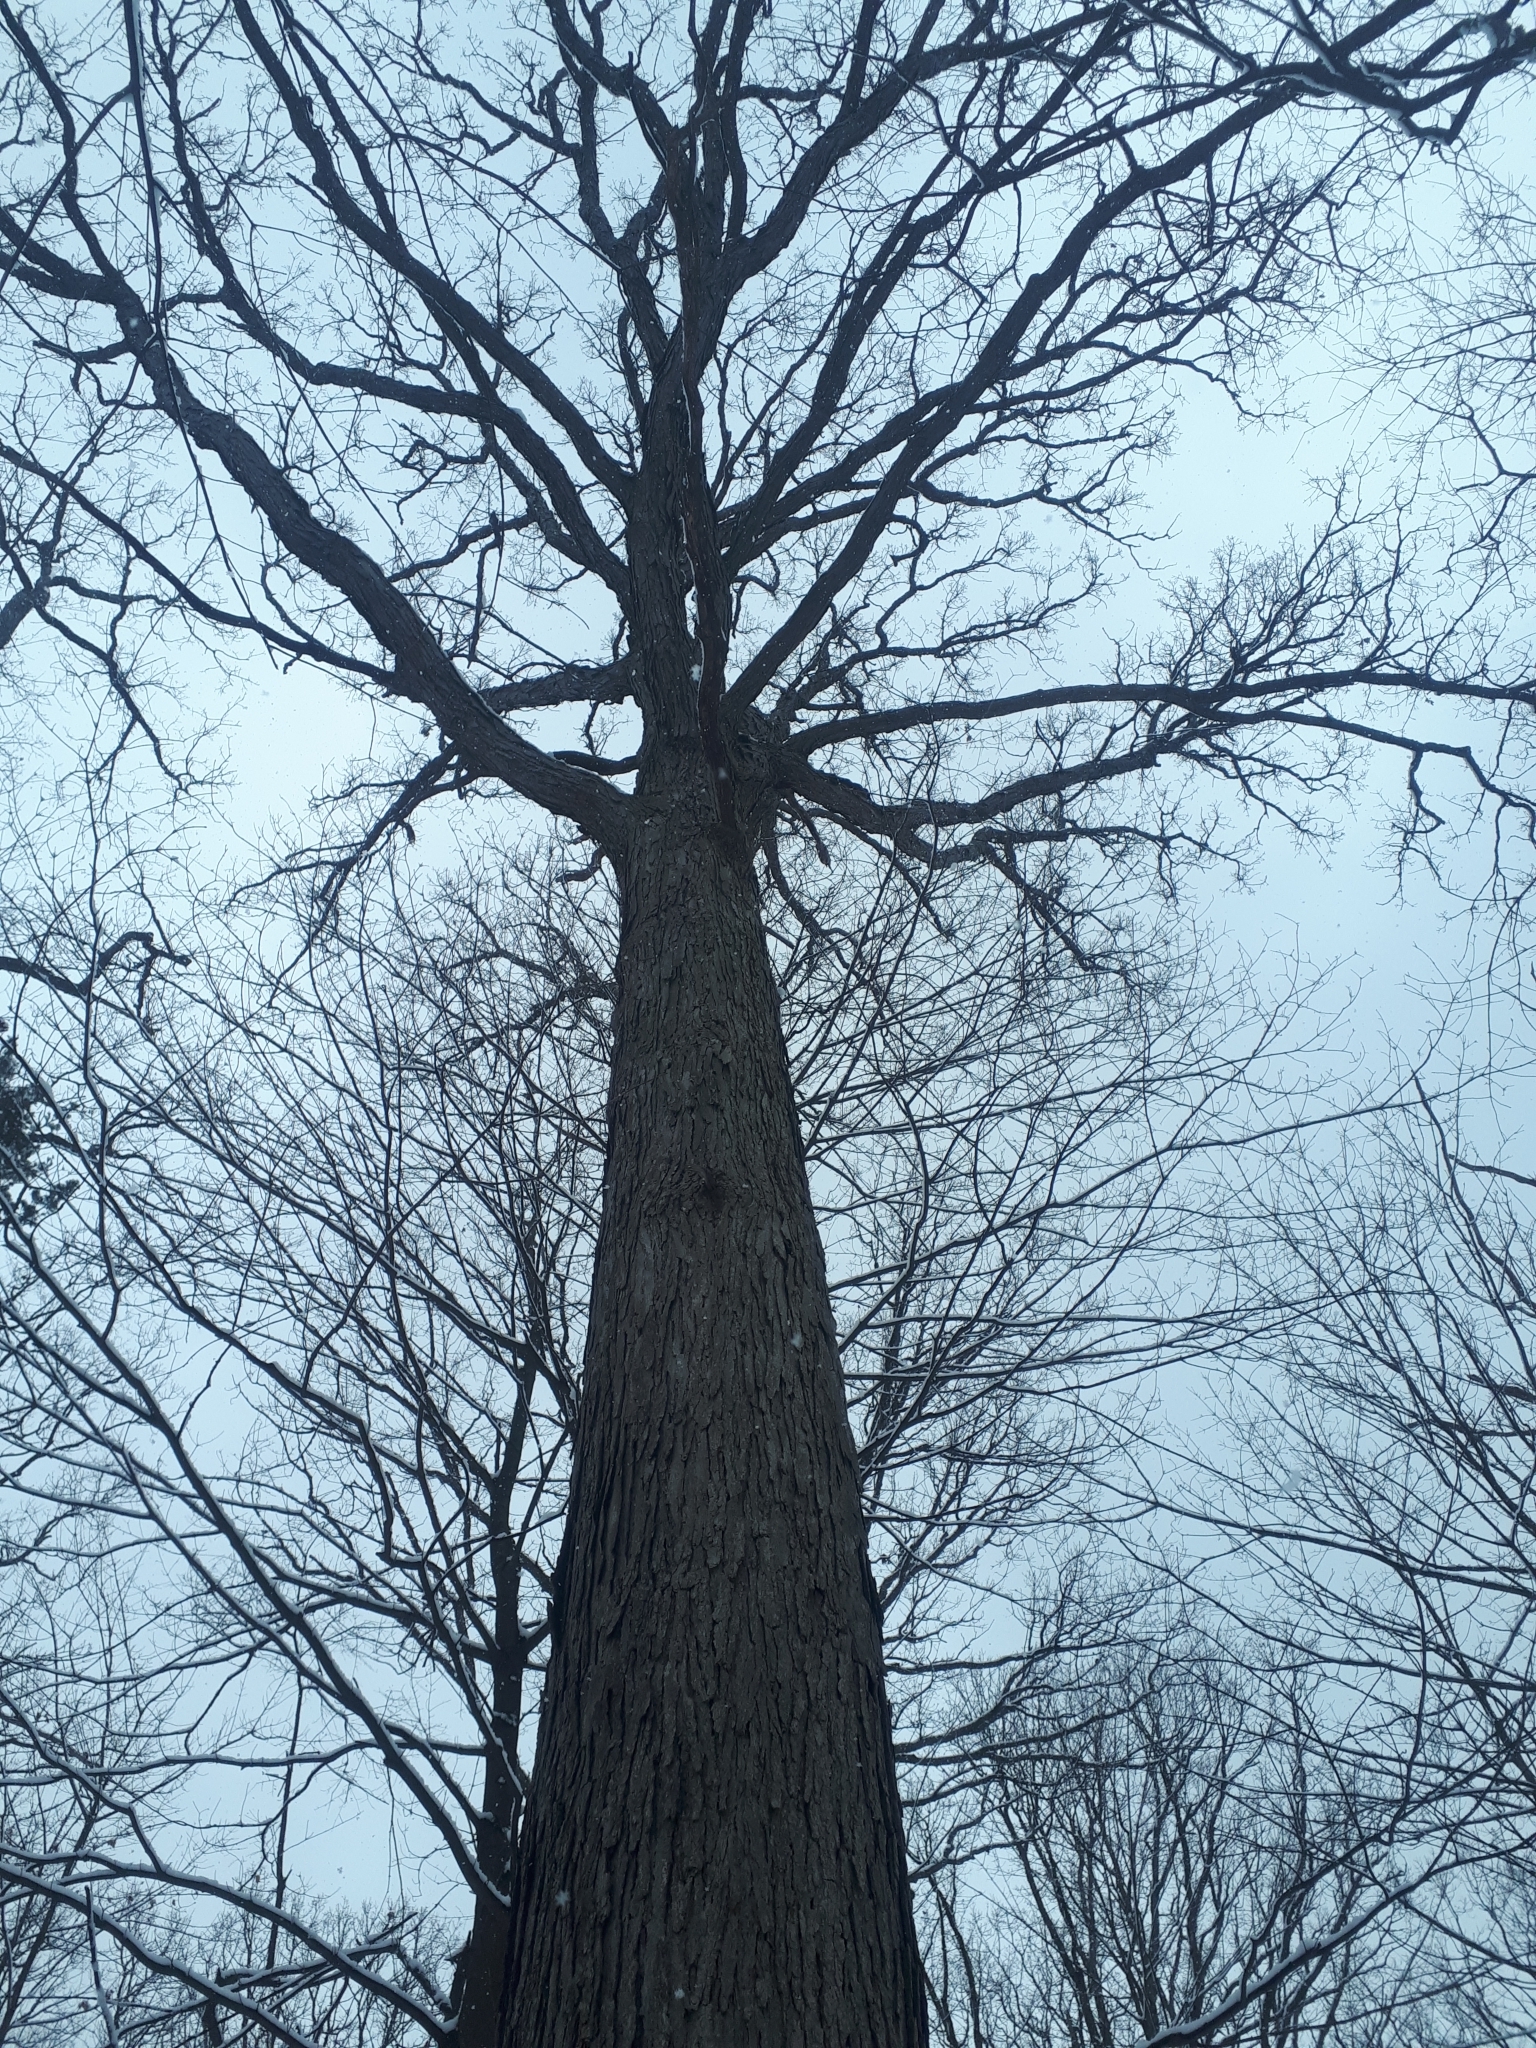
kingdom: Plantae
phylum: Tracheophyta
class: Magnoliopsida
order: Fagales
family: Fagaceae
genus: Quercus
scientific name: Quercus alba
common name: White oak
